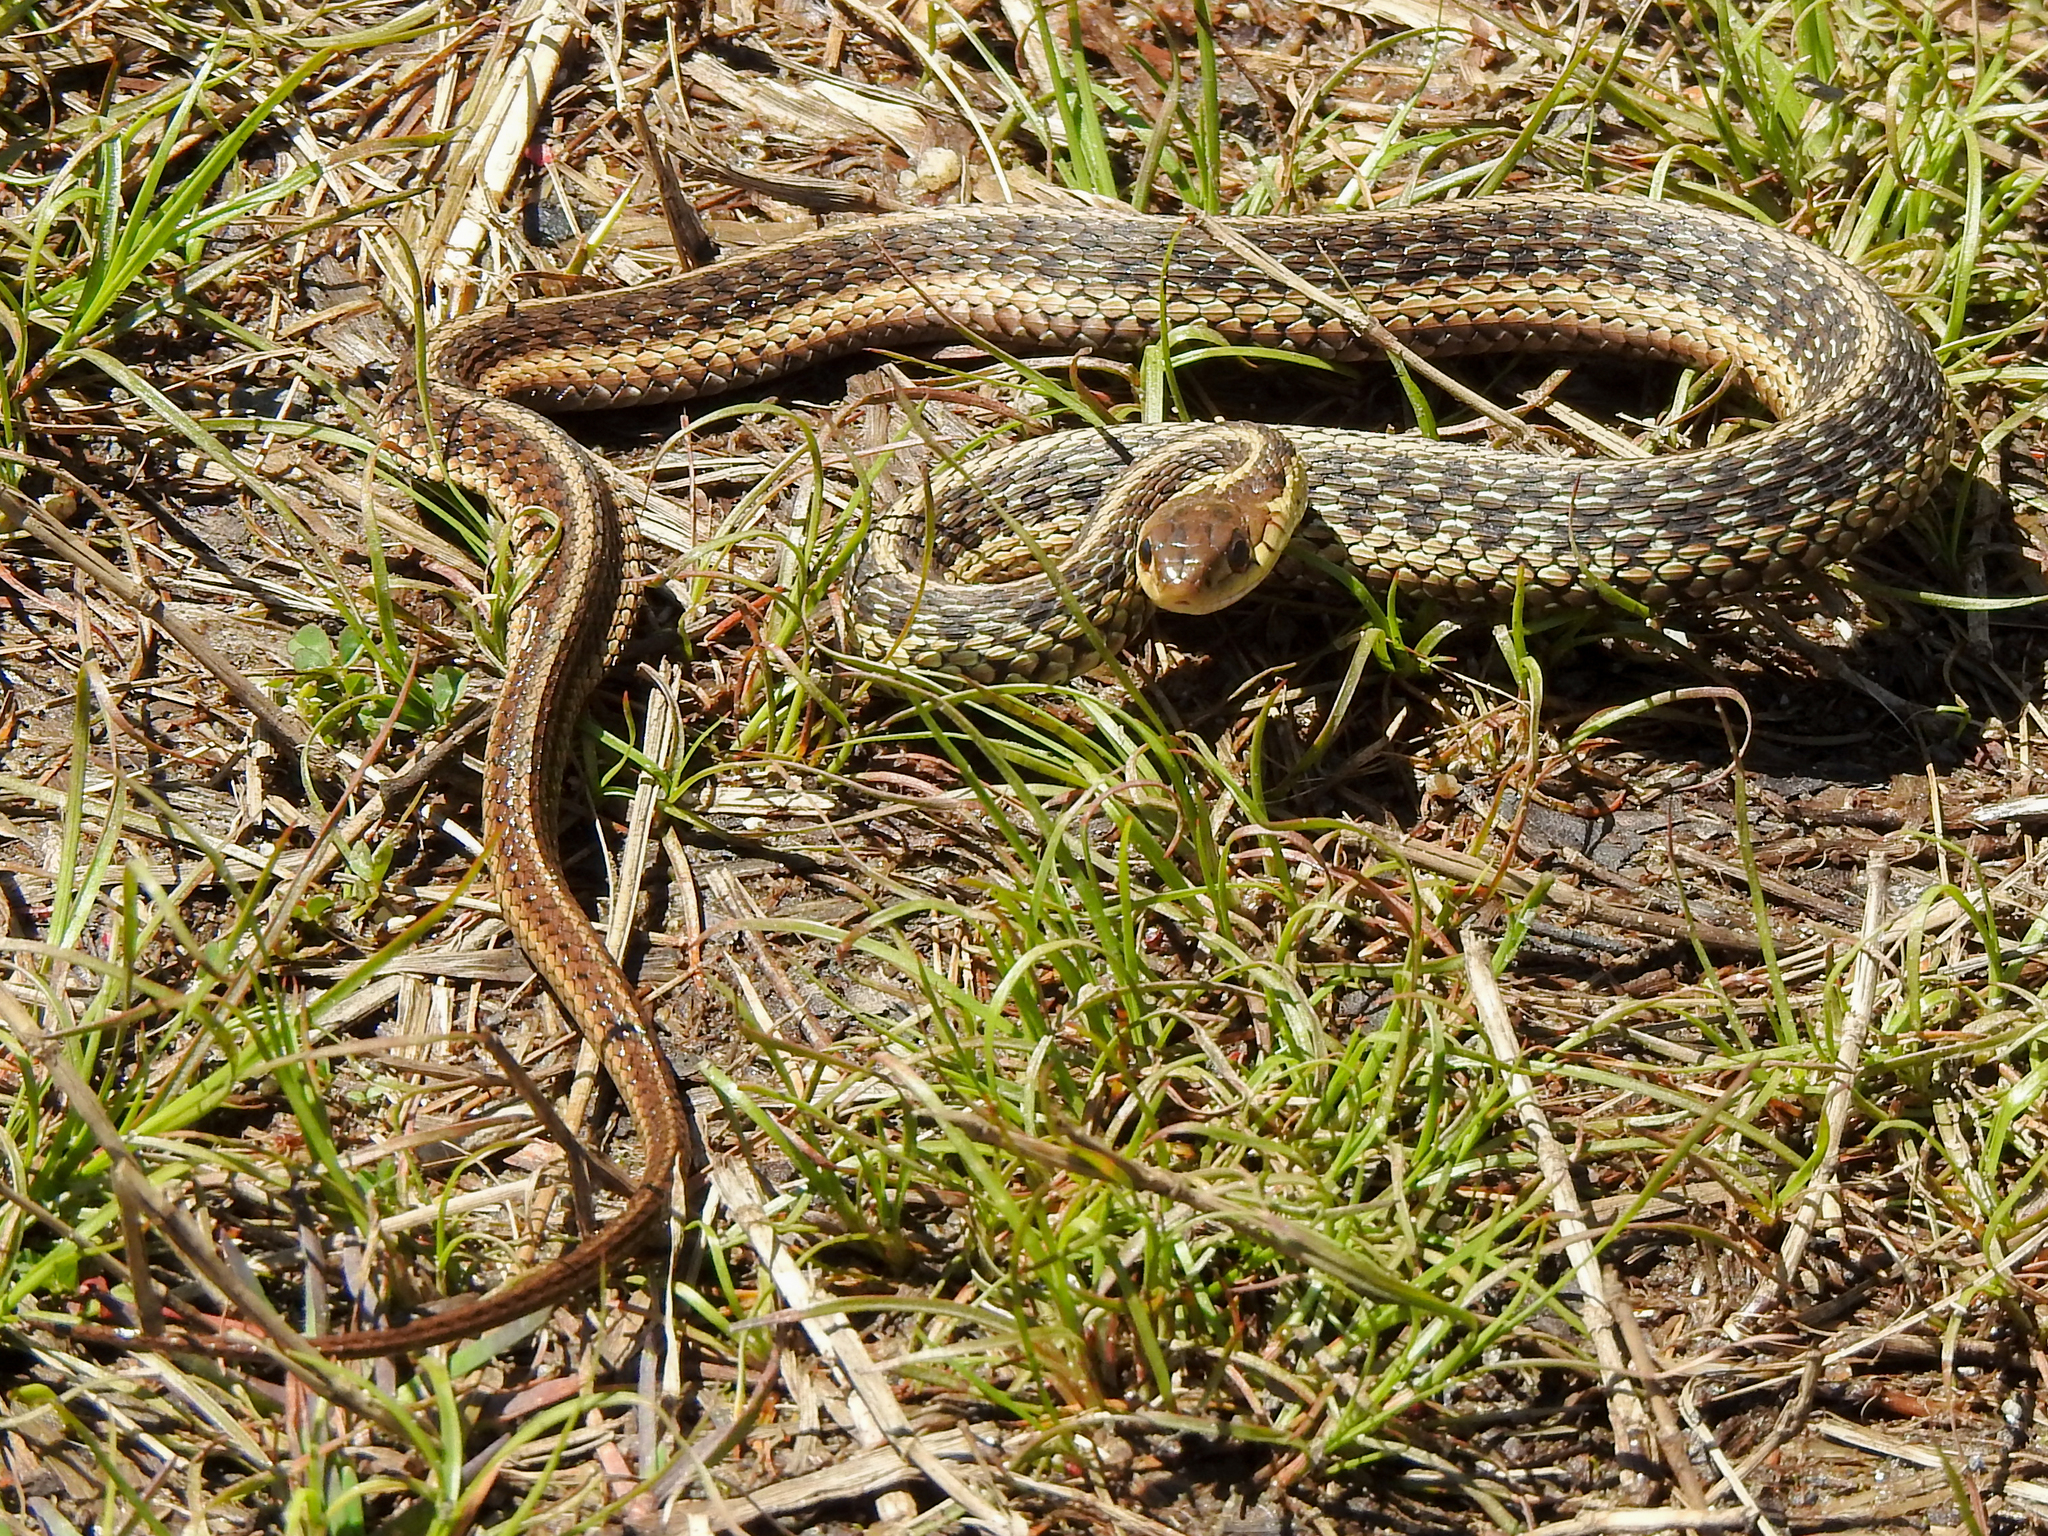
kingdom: Animalia
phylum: Chordata
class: Squamata
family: Colubridae
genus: Thamnophis
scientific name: Thamnophis sirtalis
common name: Common garter snake
